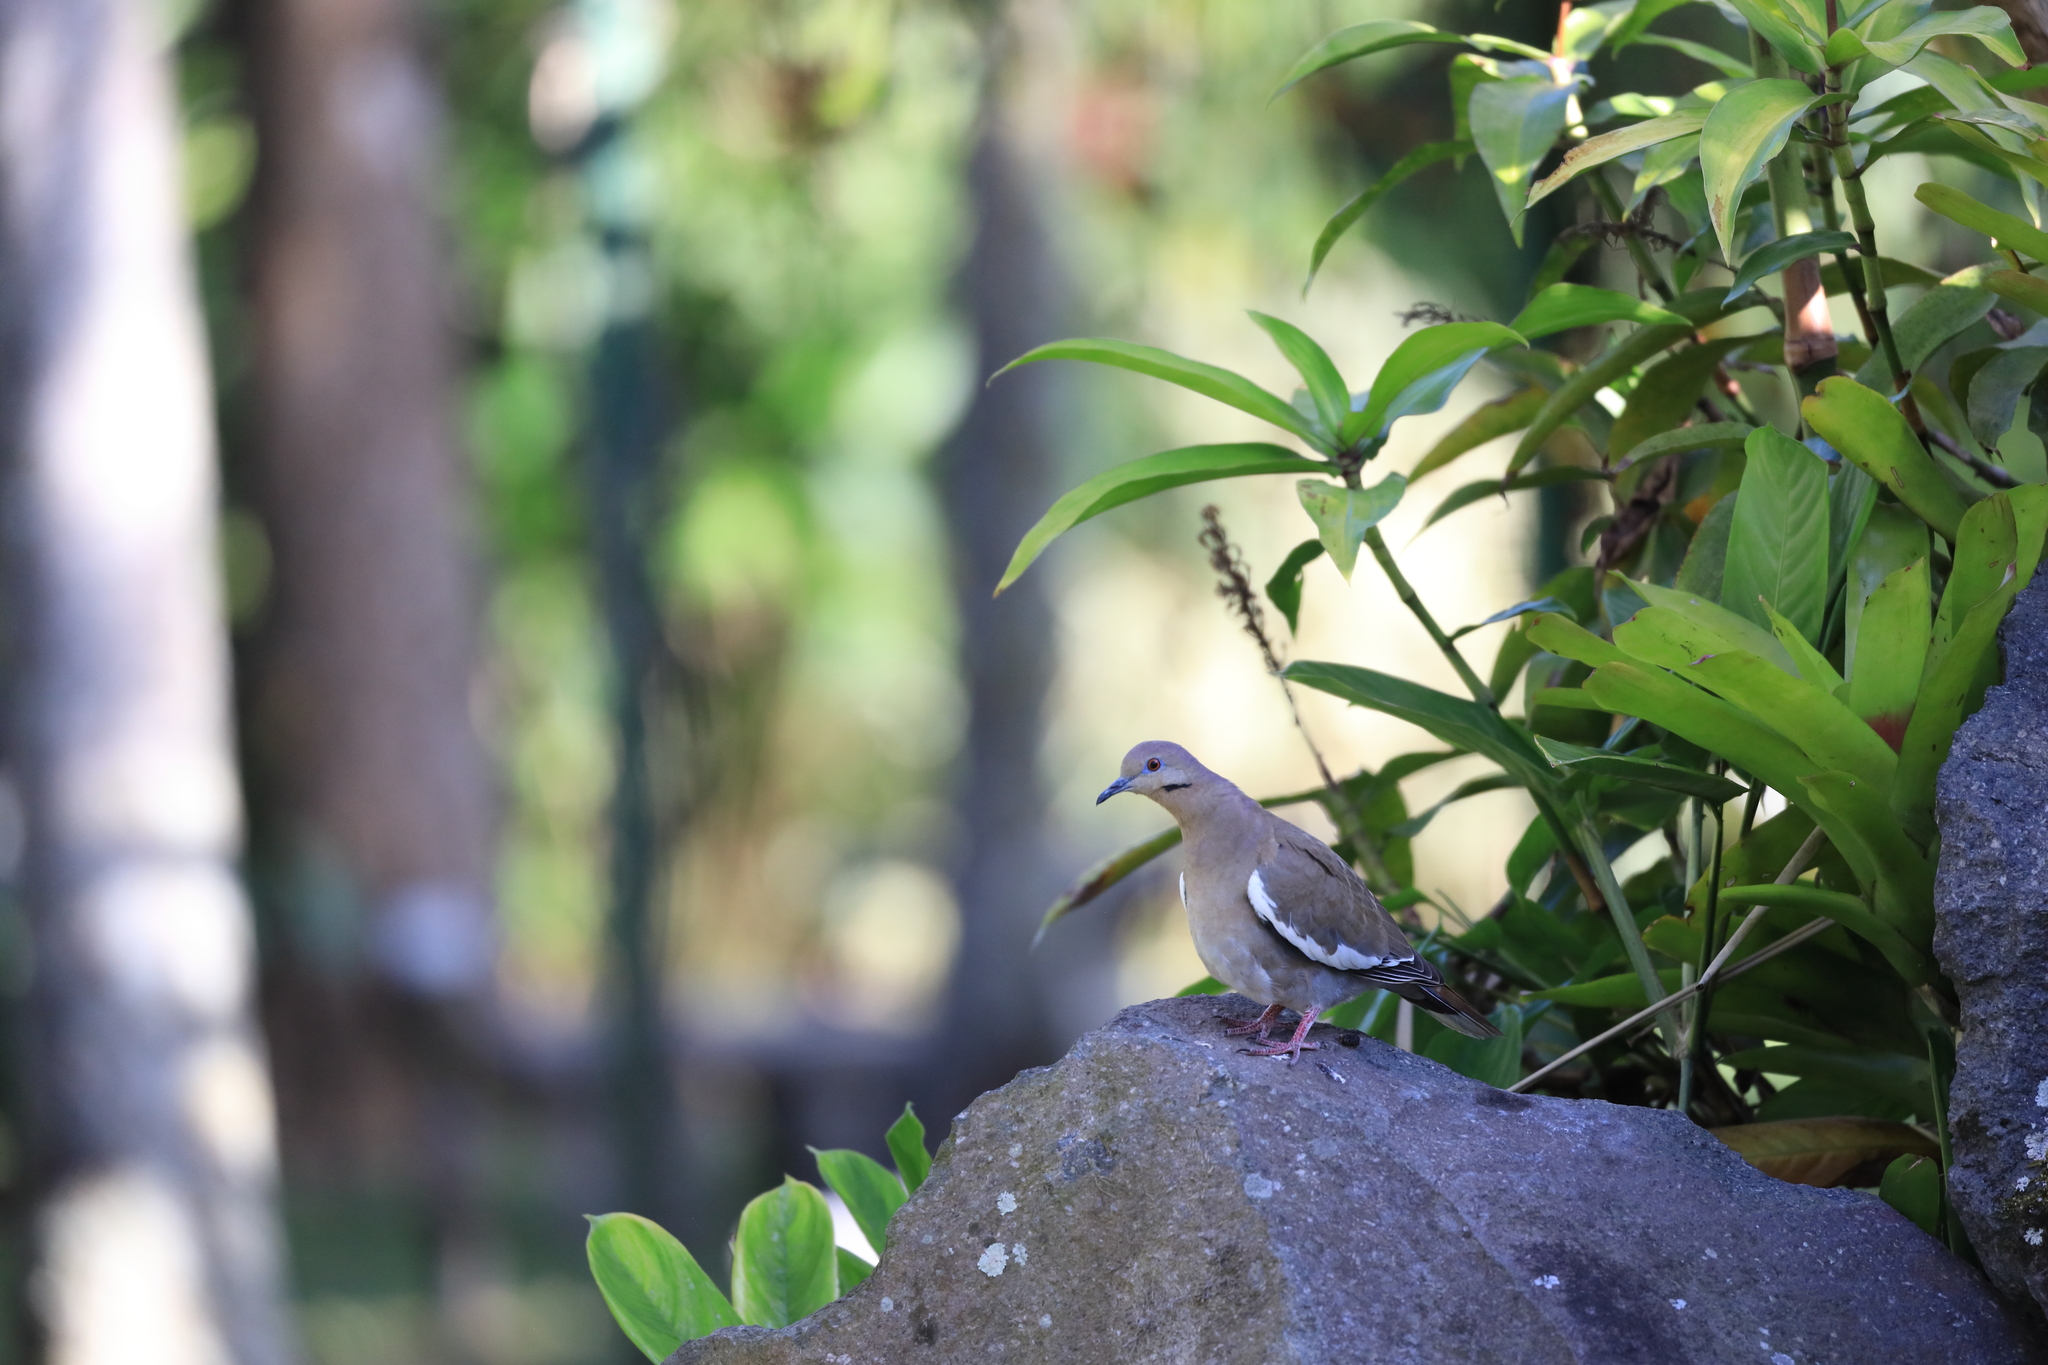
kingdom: Animalia
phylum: Chordata
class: Aves
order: Columbiformes
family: Columbidae
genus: Zenaida
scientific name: Zenaida asiatica
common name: White-winged dove
